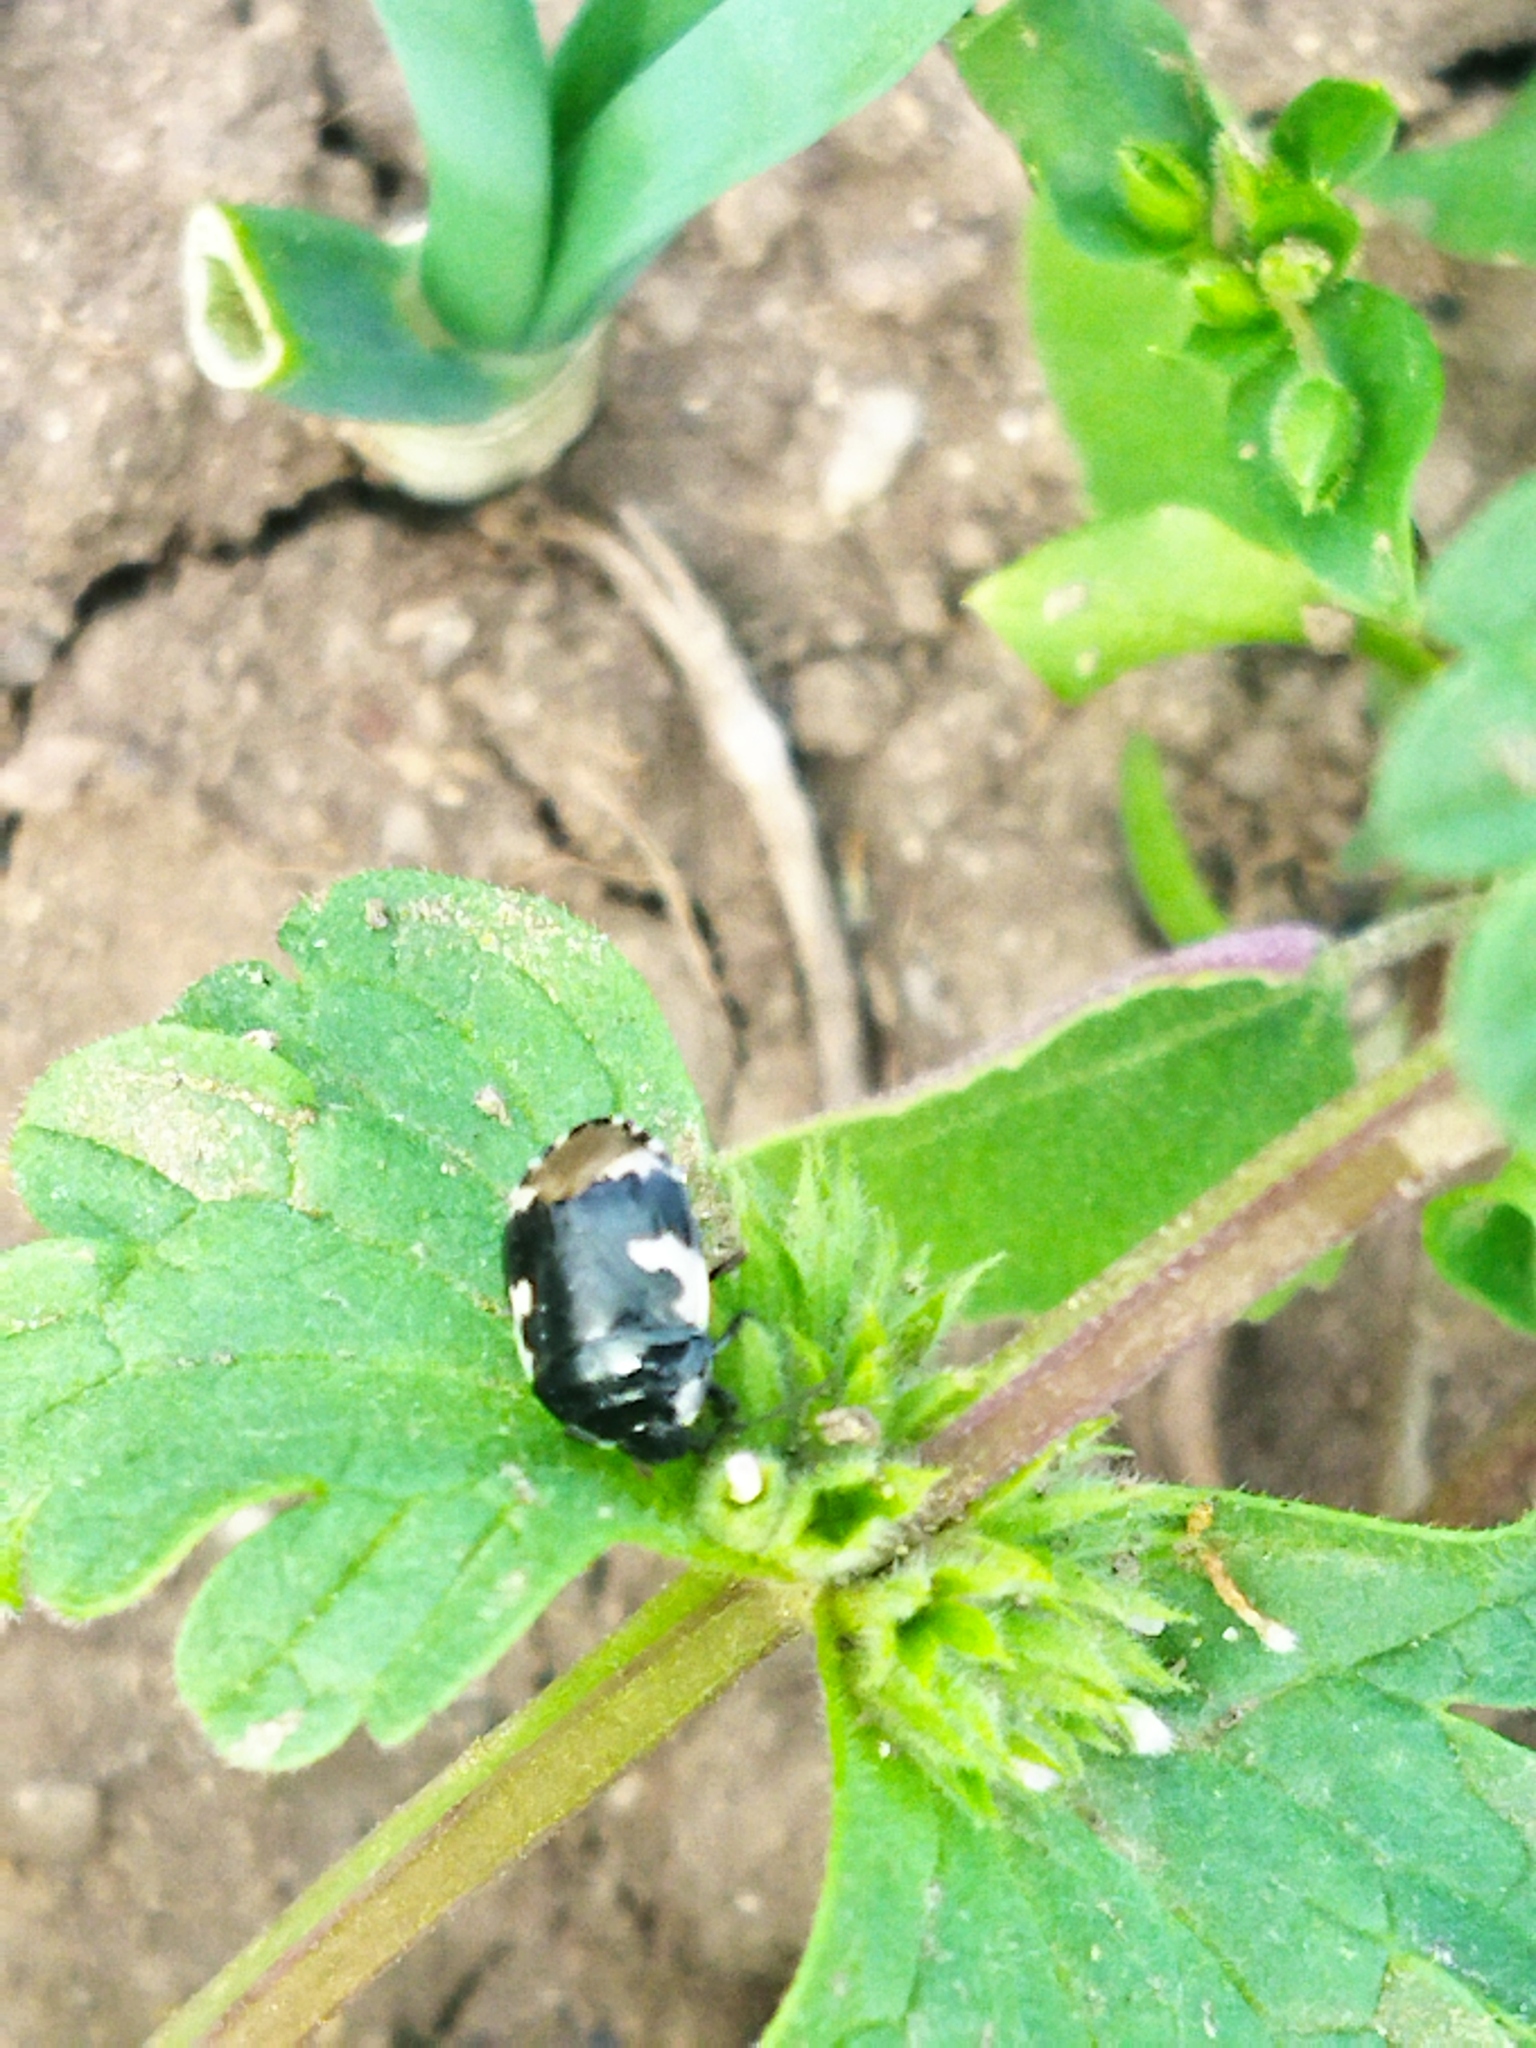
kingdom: Animalia
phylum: Arthropoda
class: Insecta
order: Hemiptera
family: Cydnidae
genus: Tritomegas
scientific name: Tritomegas bicolor
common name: Pied shieldbug
